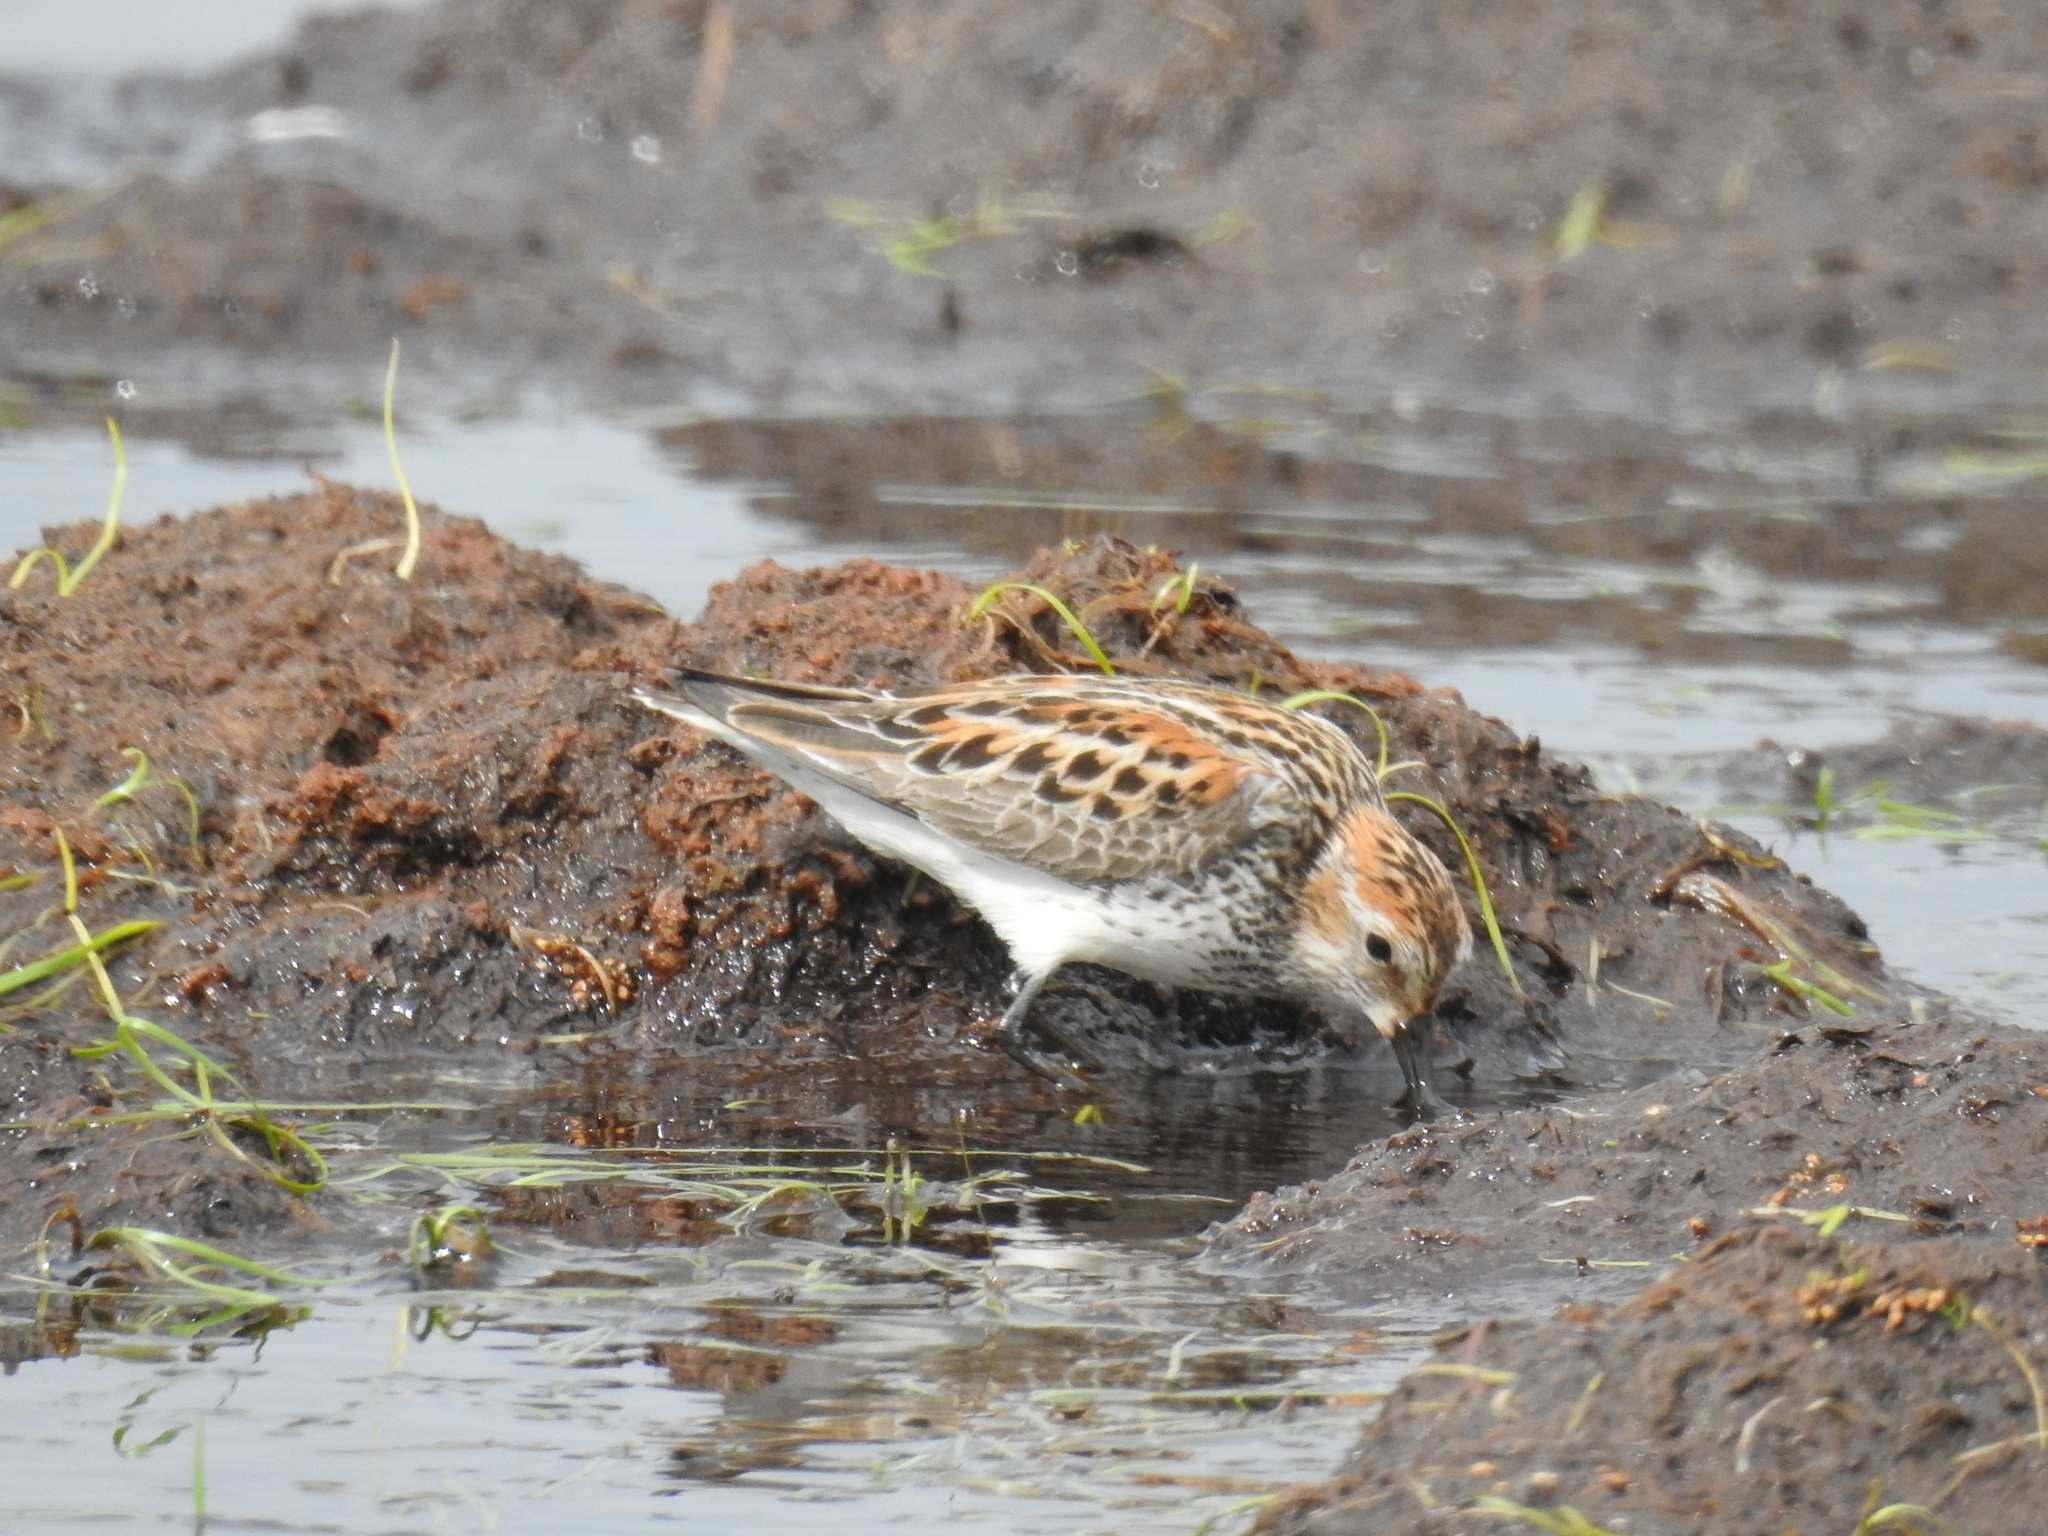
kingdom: Animalia
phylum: Chordata
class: Aves
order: Charadriiformes
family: Scolopacidae
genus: Calidris
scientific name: Calidris mauri
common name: Western sandpiper
